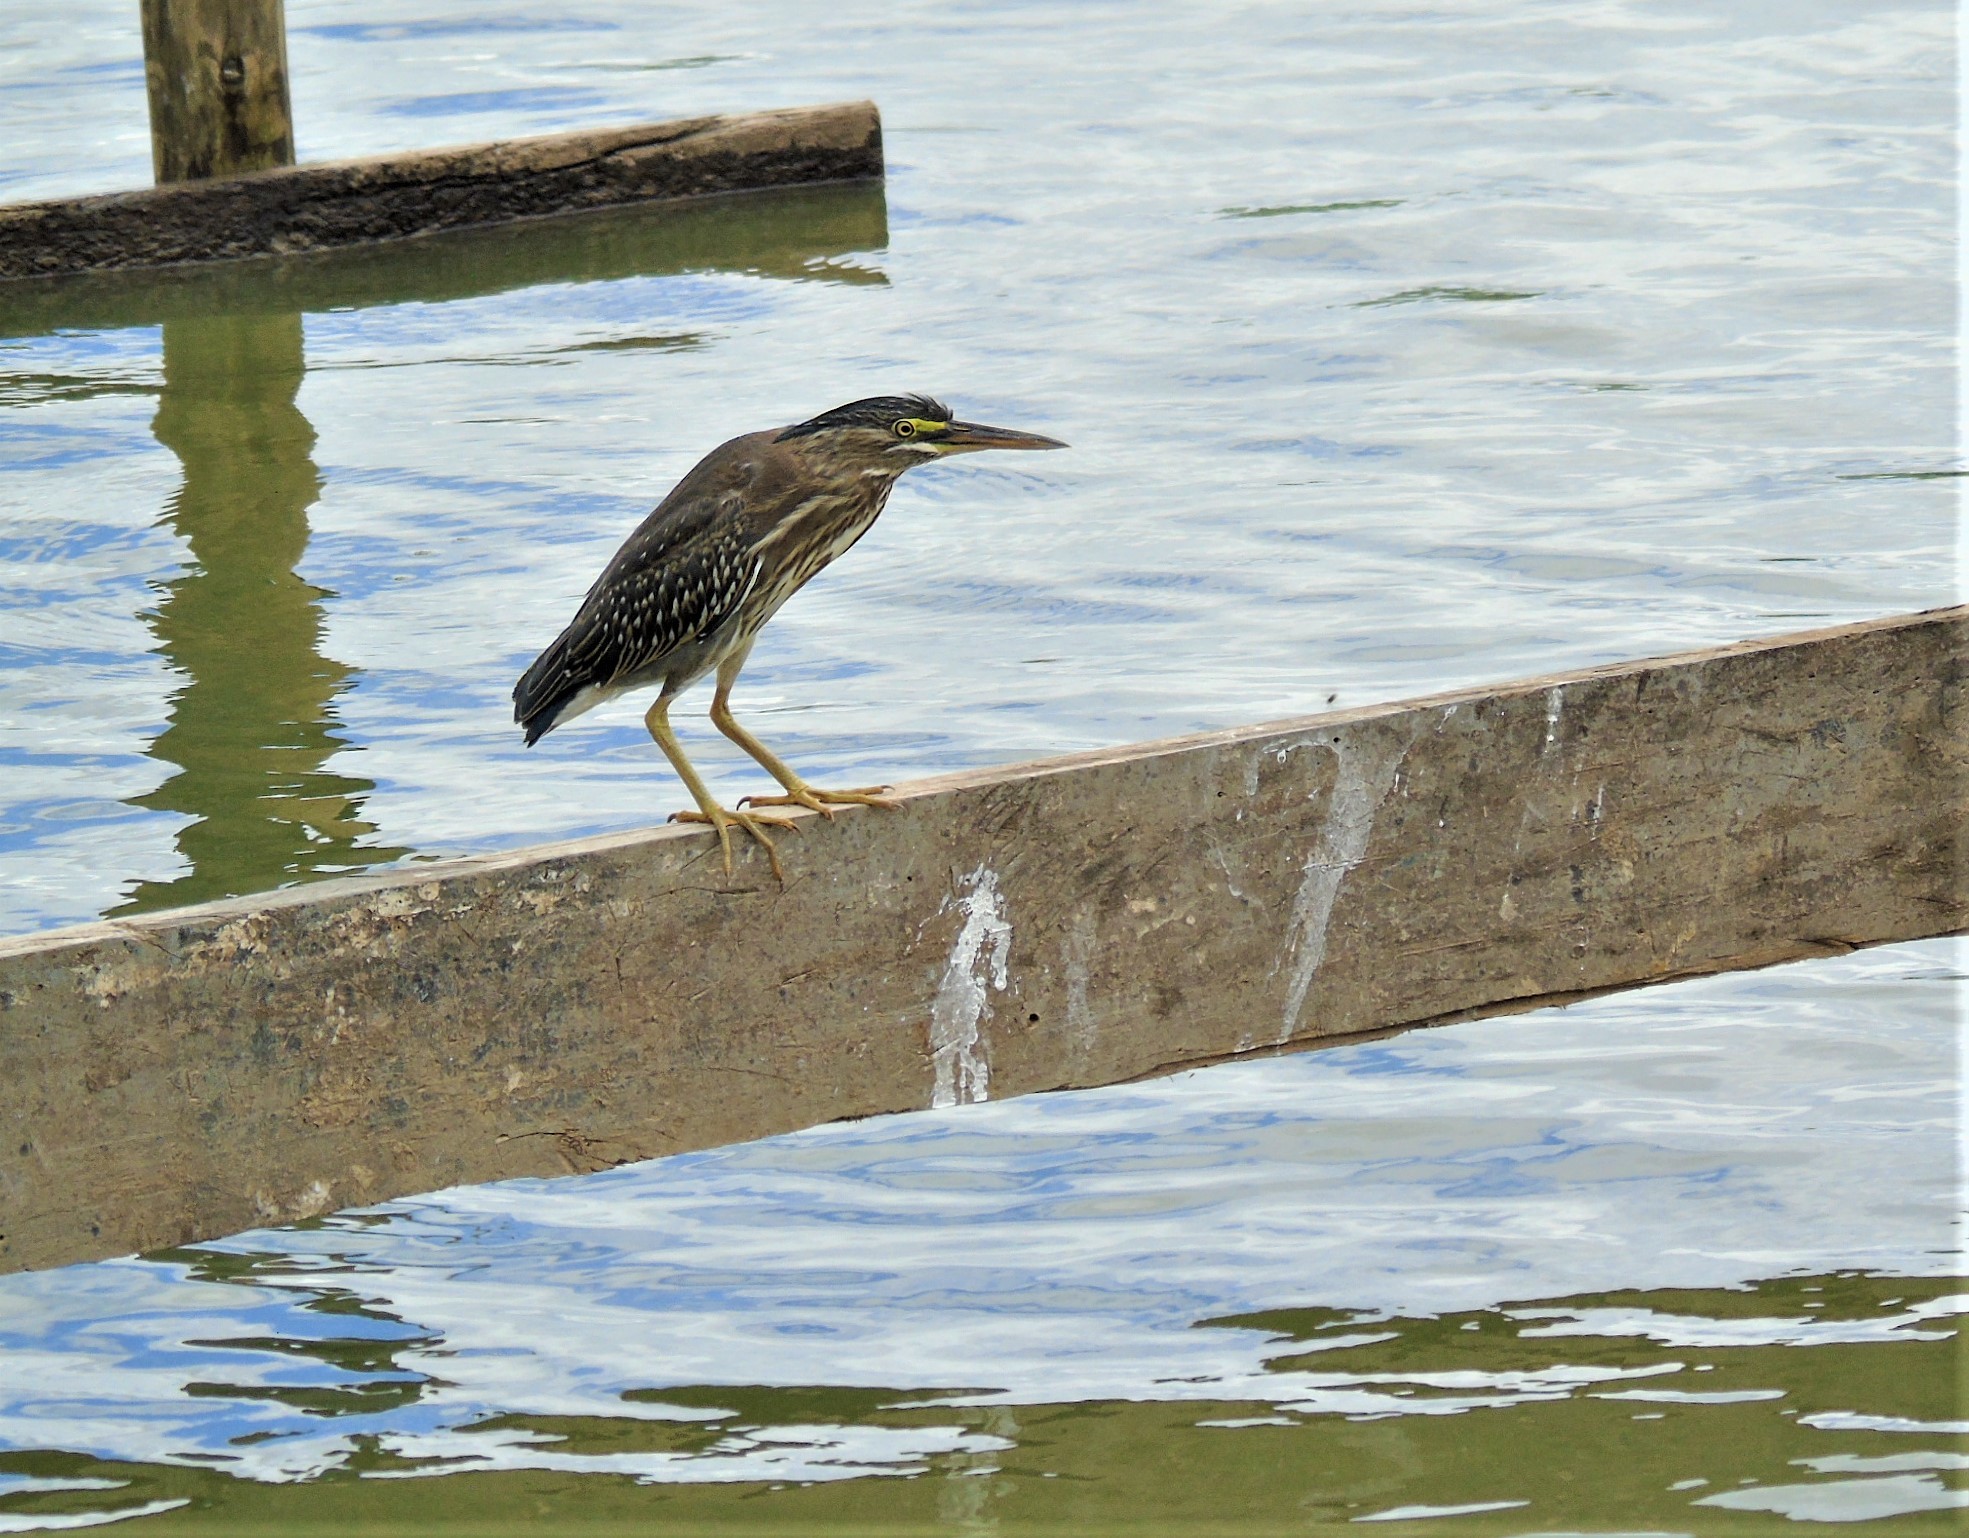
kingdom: Animalia
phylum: Chordata
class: Aves
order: Pelecaniformes
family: Ardeidae
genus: Butorides
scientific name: Butorides striata
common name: Striated heron
